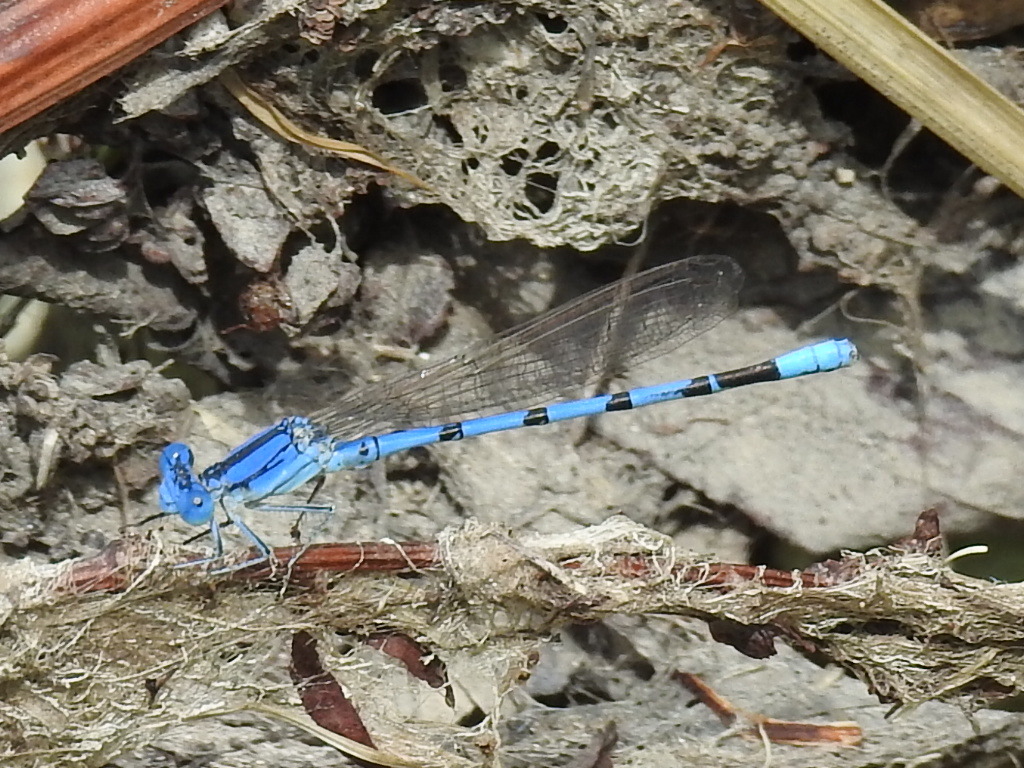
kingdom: Animalia
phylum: Arthropoda
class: Insecta
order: Odonata
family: Coenagrionidae
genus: Argia
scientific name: Argia nahuana
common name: Aztec dancer
